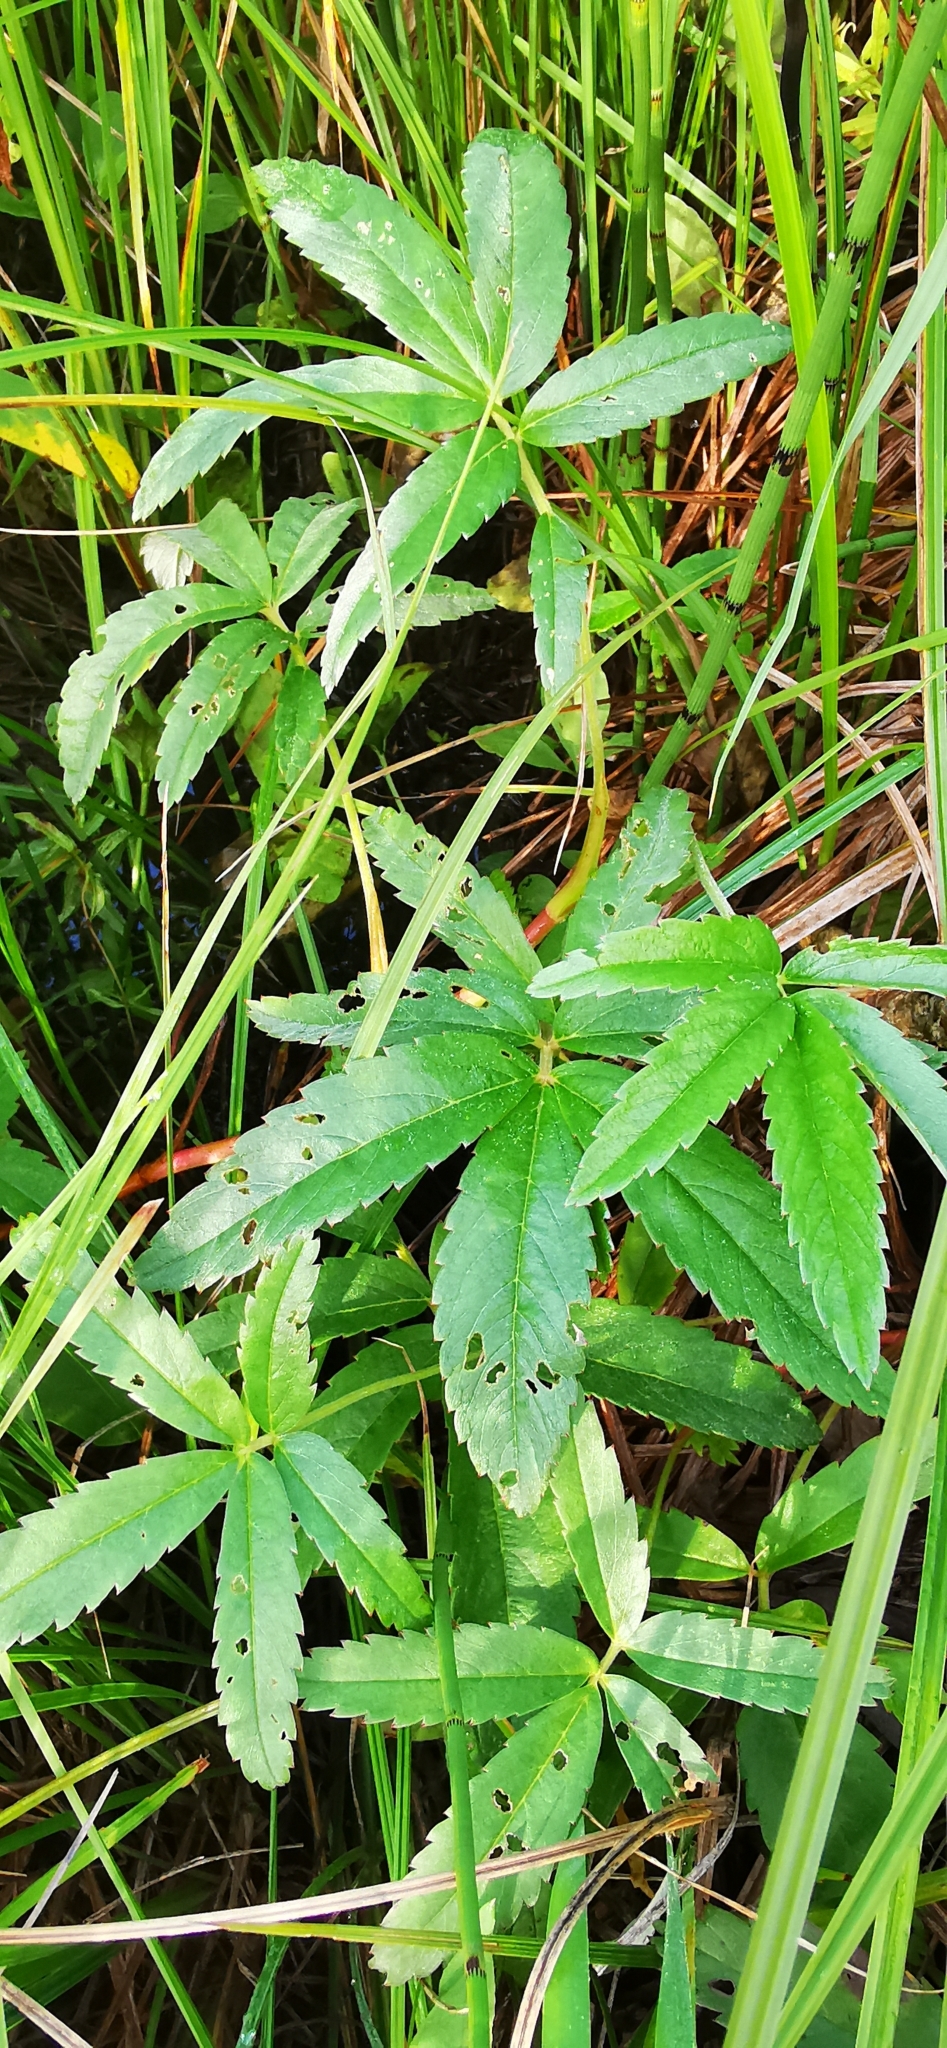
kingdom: Plantae
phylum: Tracheophyta
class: Magnoliopsida
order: Rosales
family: Rosaceae
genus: Comarum
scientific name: Comarum palustre
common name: Marsh cinquefoil
